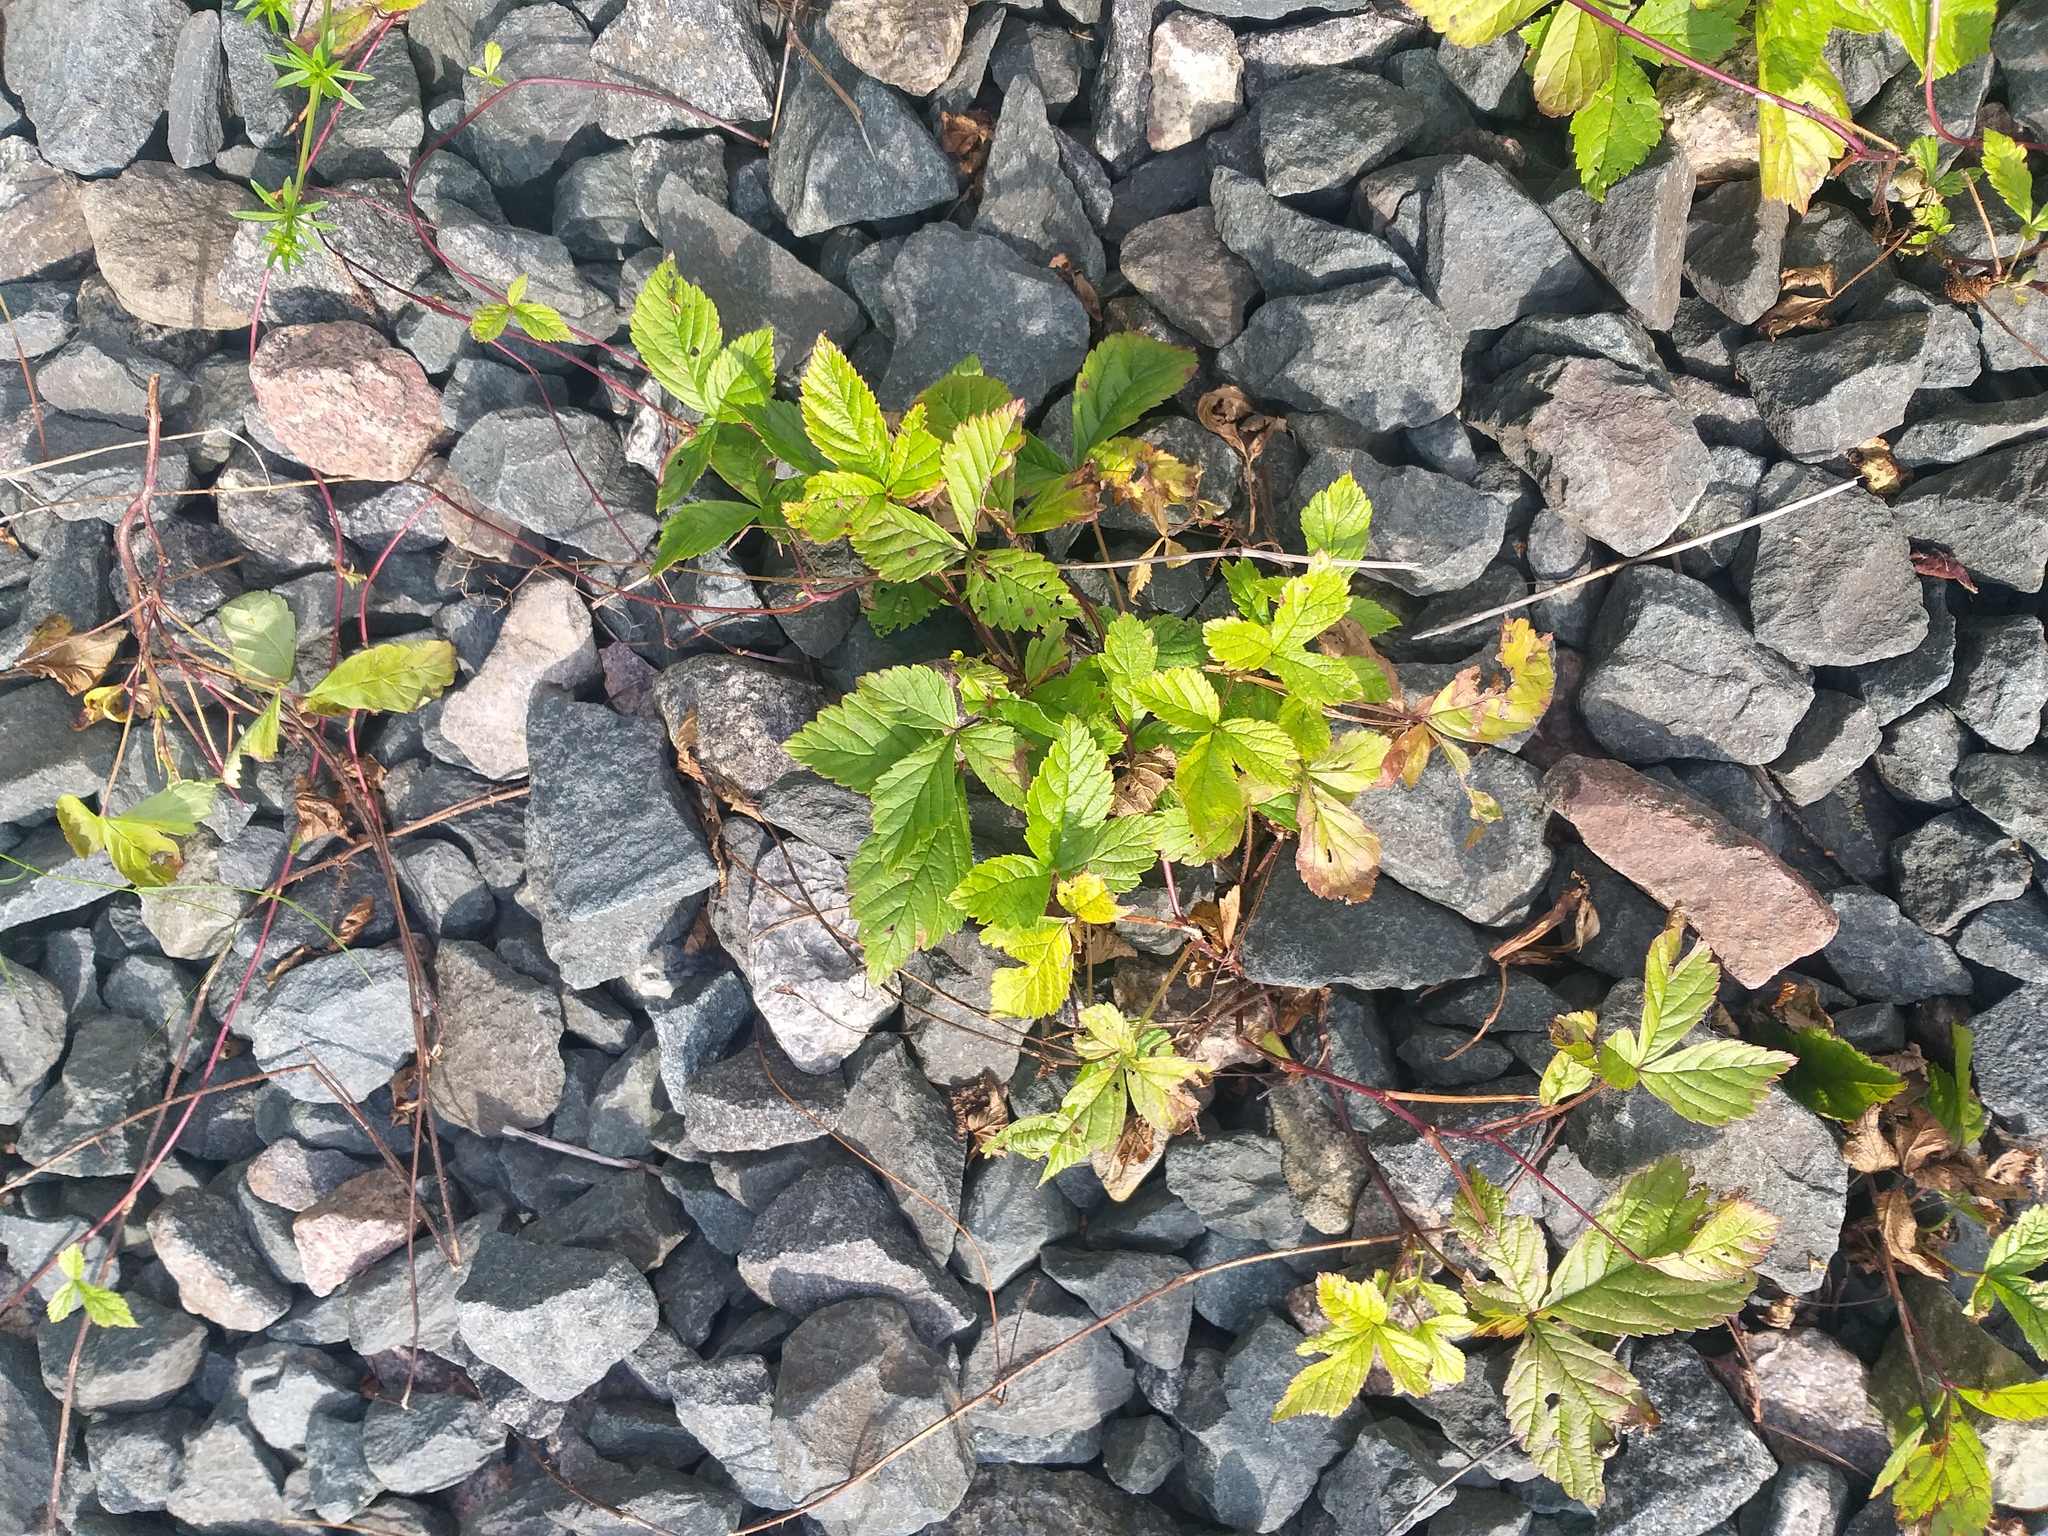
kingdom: Plantae
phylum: Tracheophyta
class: Magnoliopsida
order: Rosales
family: Rosaceae
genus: Rubus
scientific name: Rubus saxatilis
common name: Stone bramble
